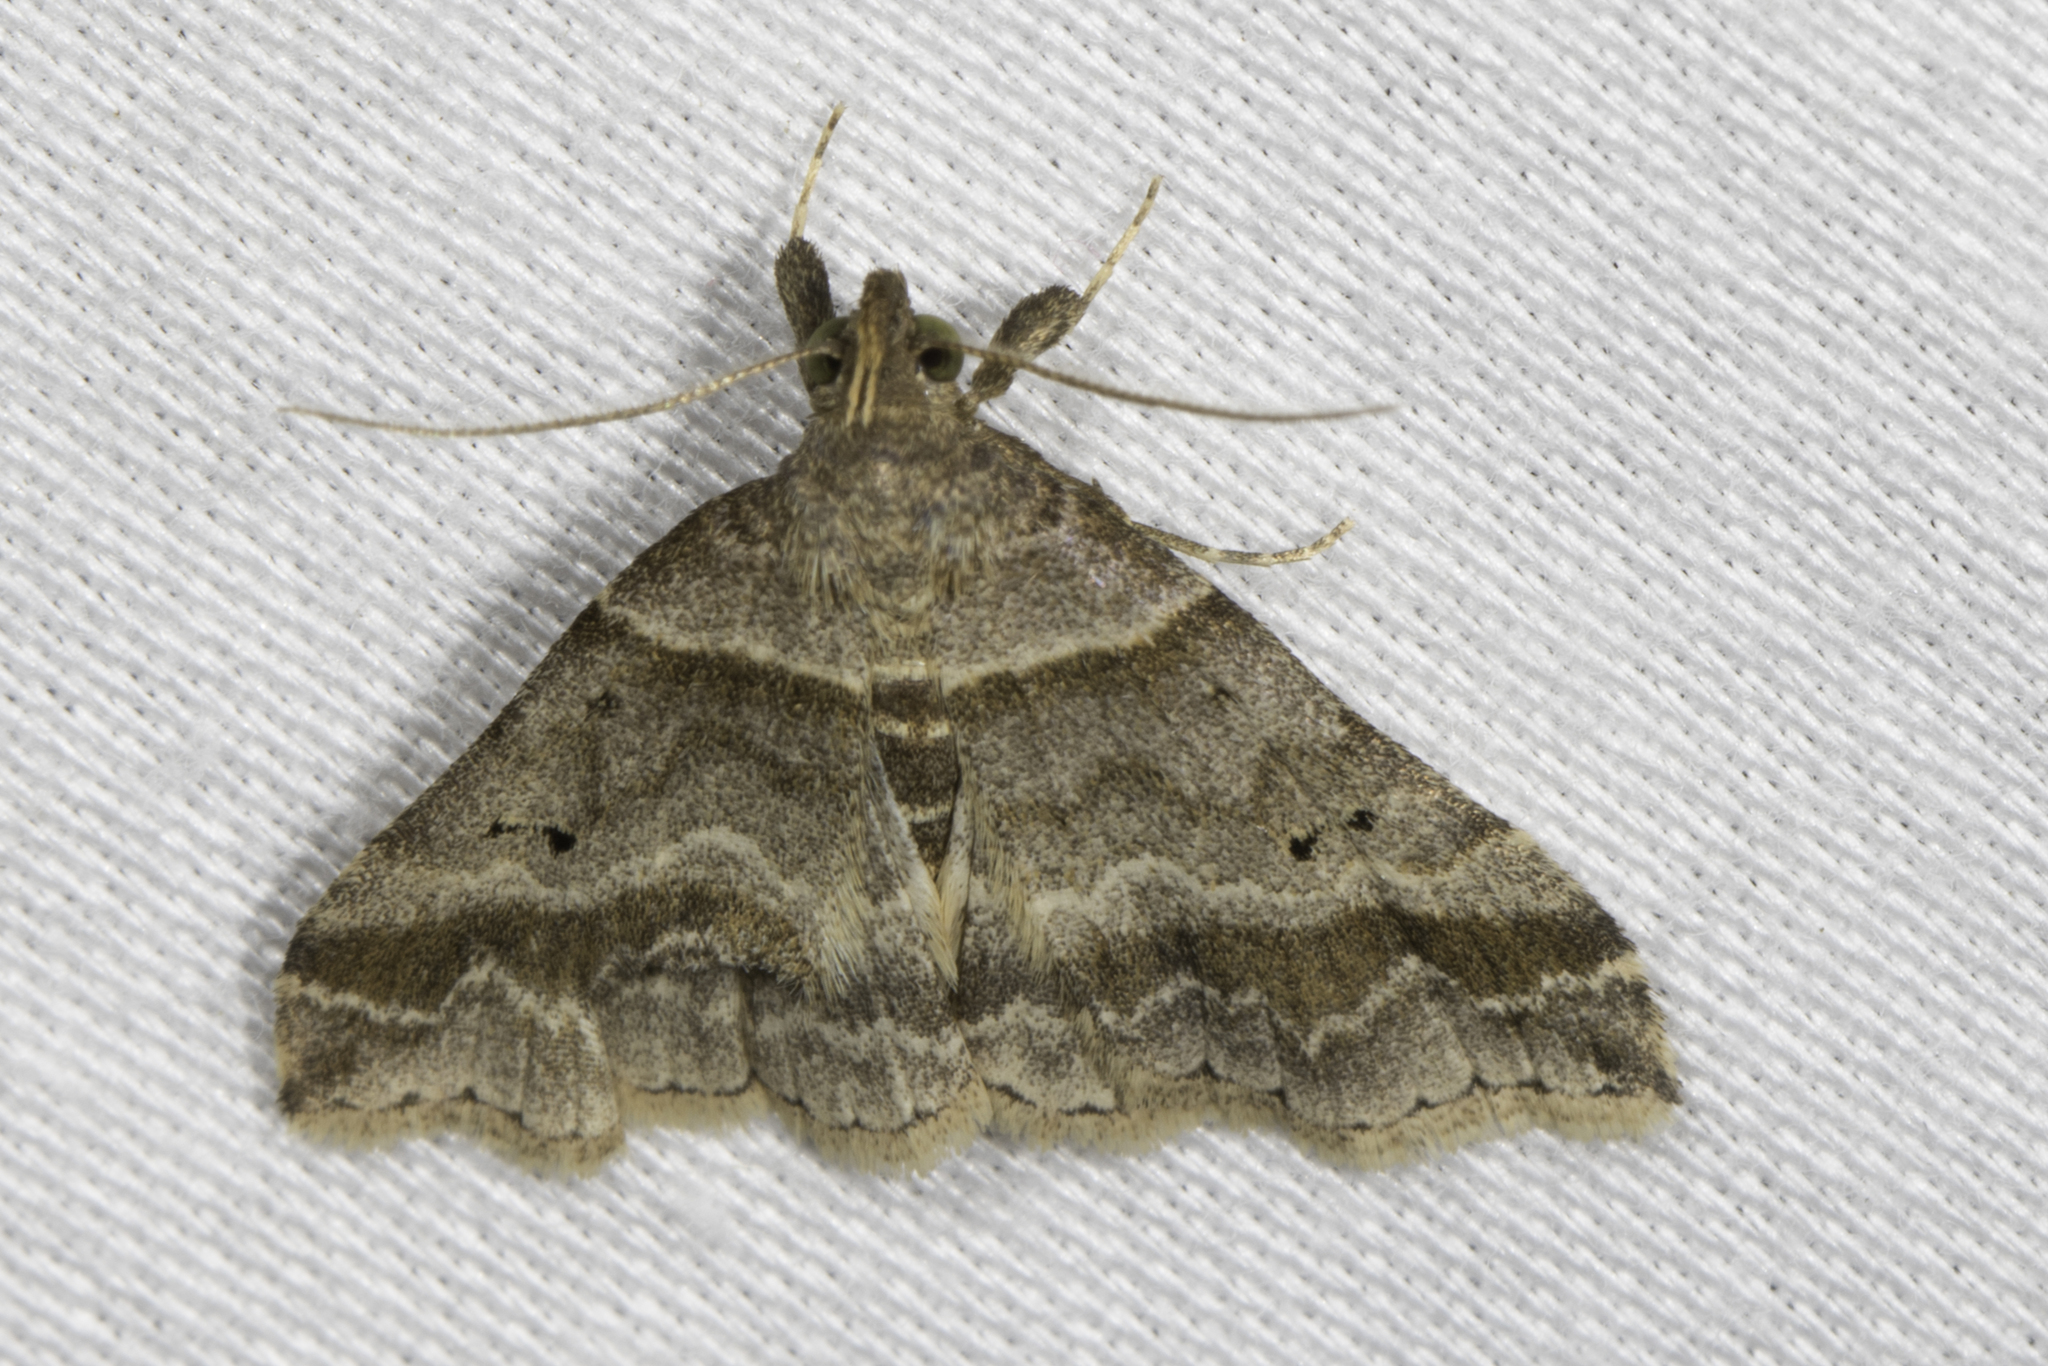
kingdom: Animalia
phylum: Arthropoda
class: Insecta
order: Lepidoptera
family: Erebidae
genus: Phaeolita
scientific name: Phaeolita pyramusalis
